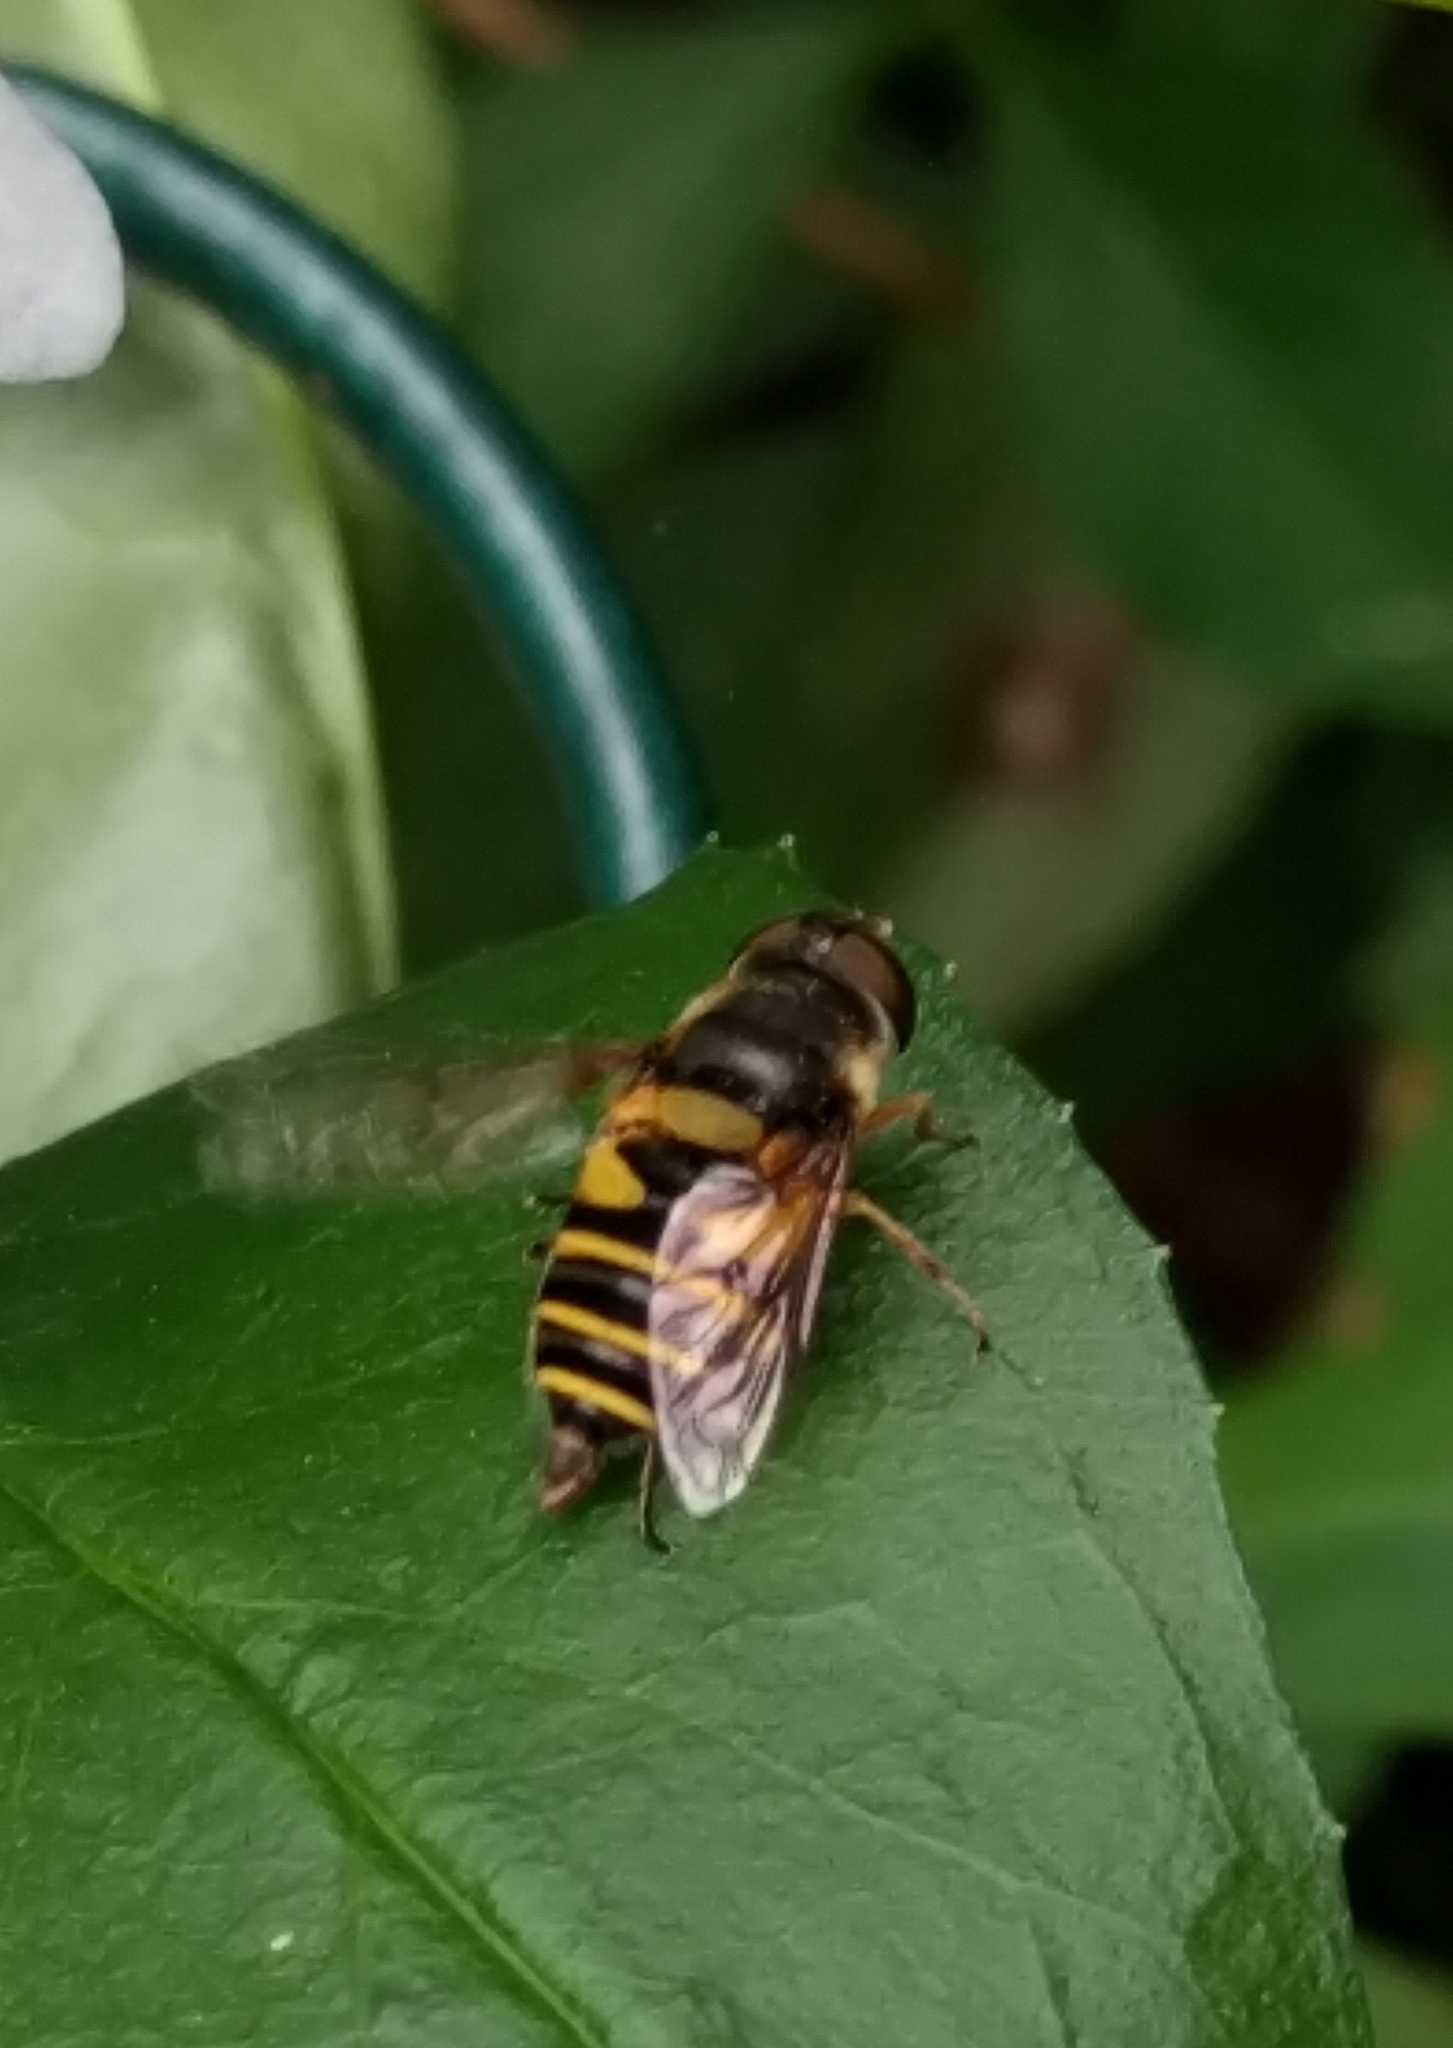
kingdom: Animalia
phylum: Arthropoda
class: Insecta
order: Diptera
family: Syrphidae
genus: Eristalis
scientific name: Eristalis transversa
